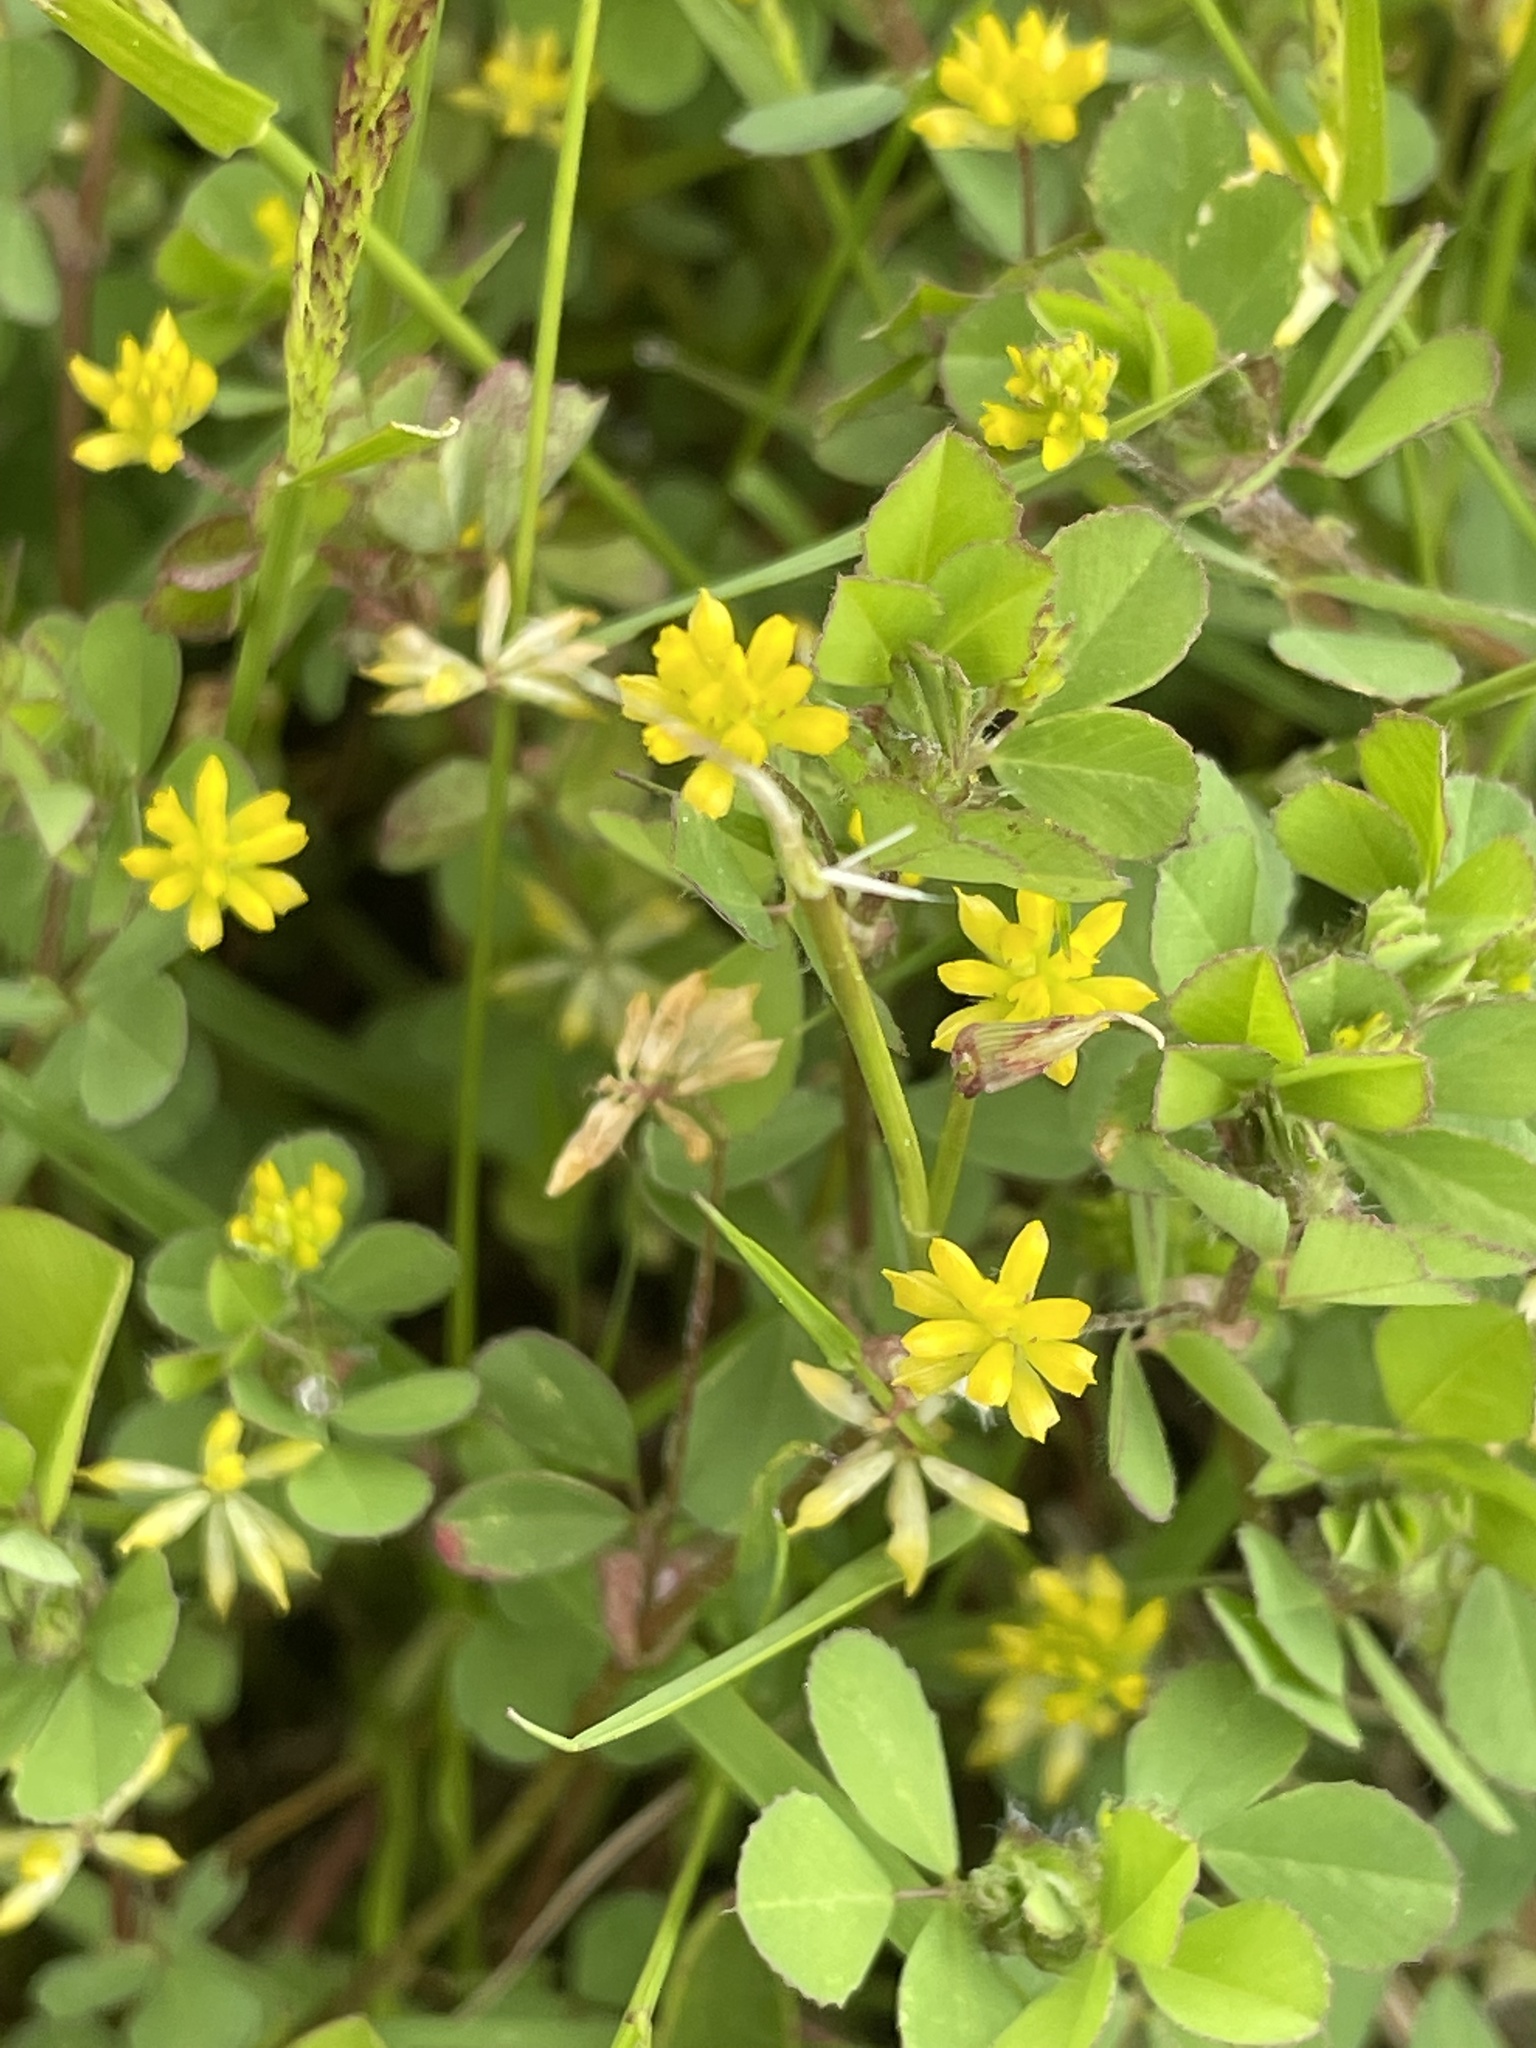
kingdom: Plantae
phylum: Tracheophyta
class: Magnoliopsida
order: Fabales
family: Fabaceae
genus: Trifolium
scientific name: Trifolium dubium
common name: Suckling clover
